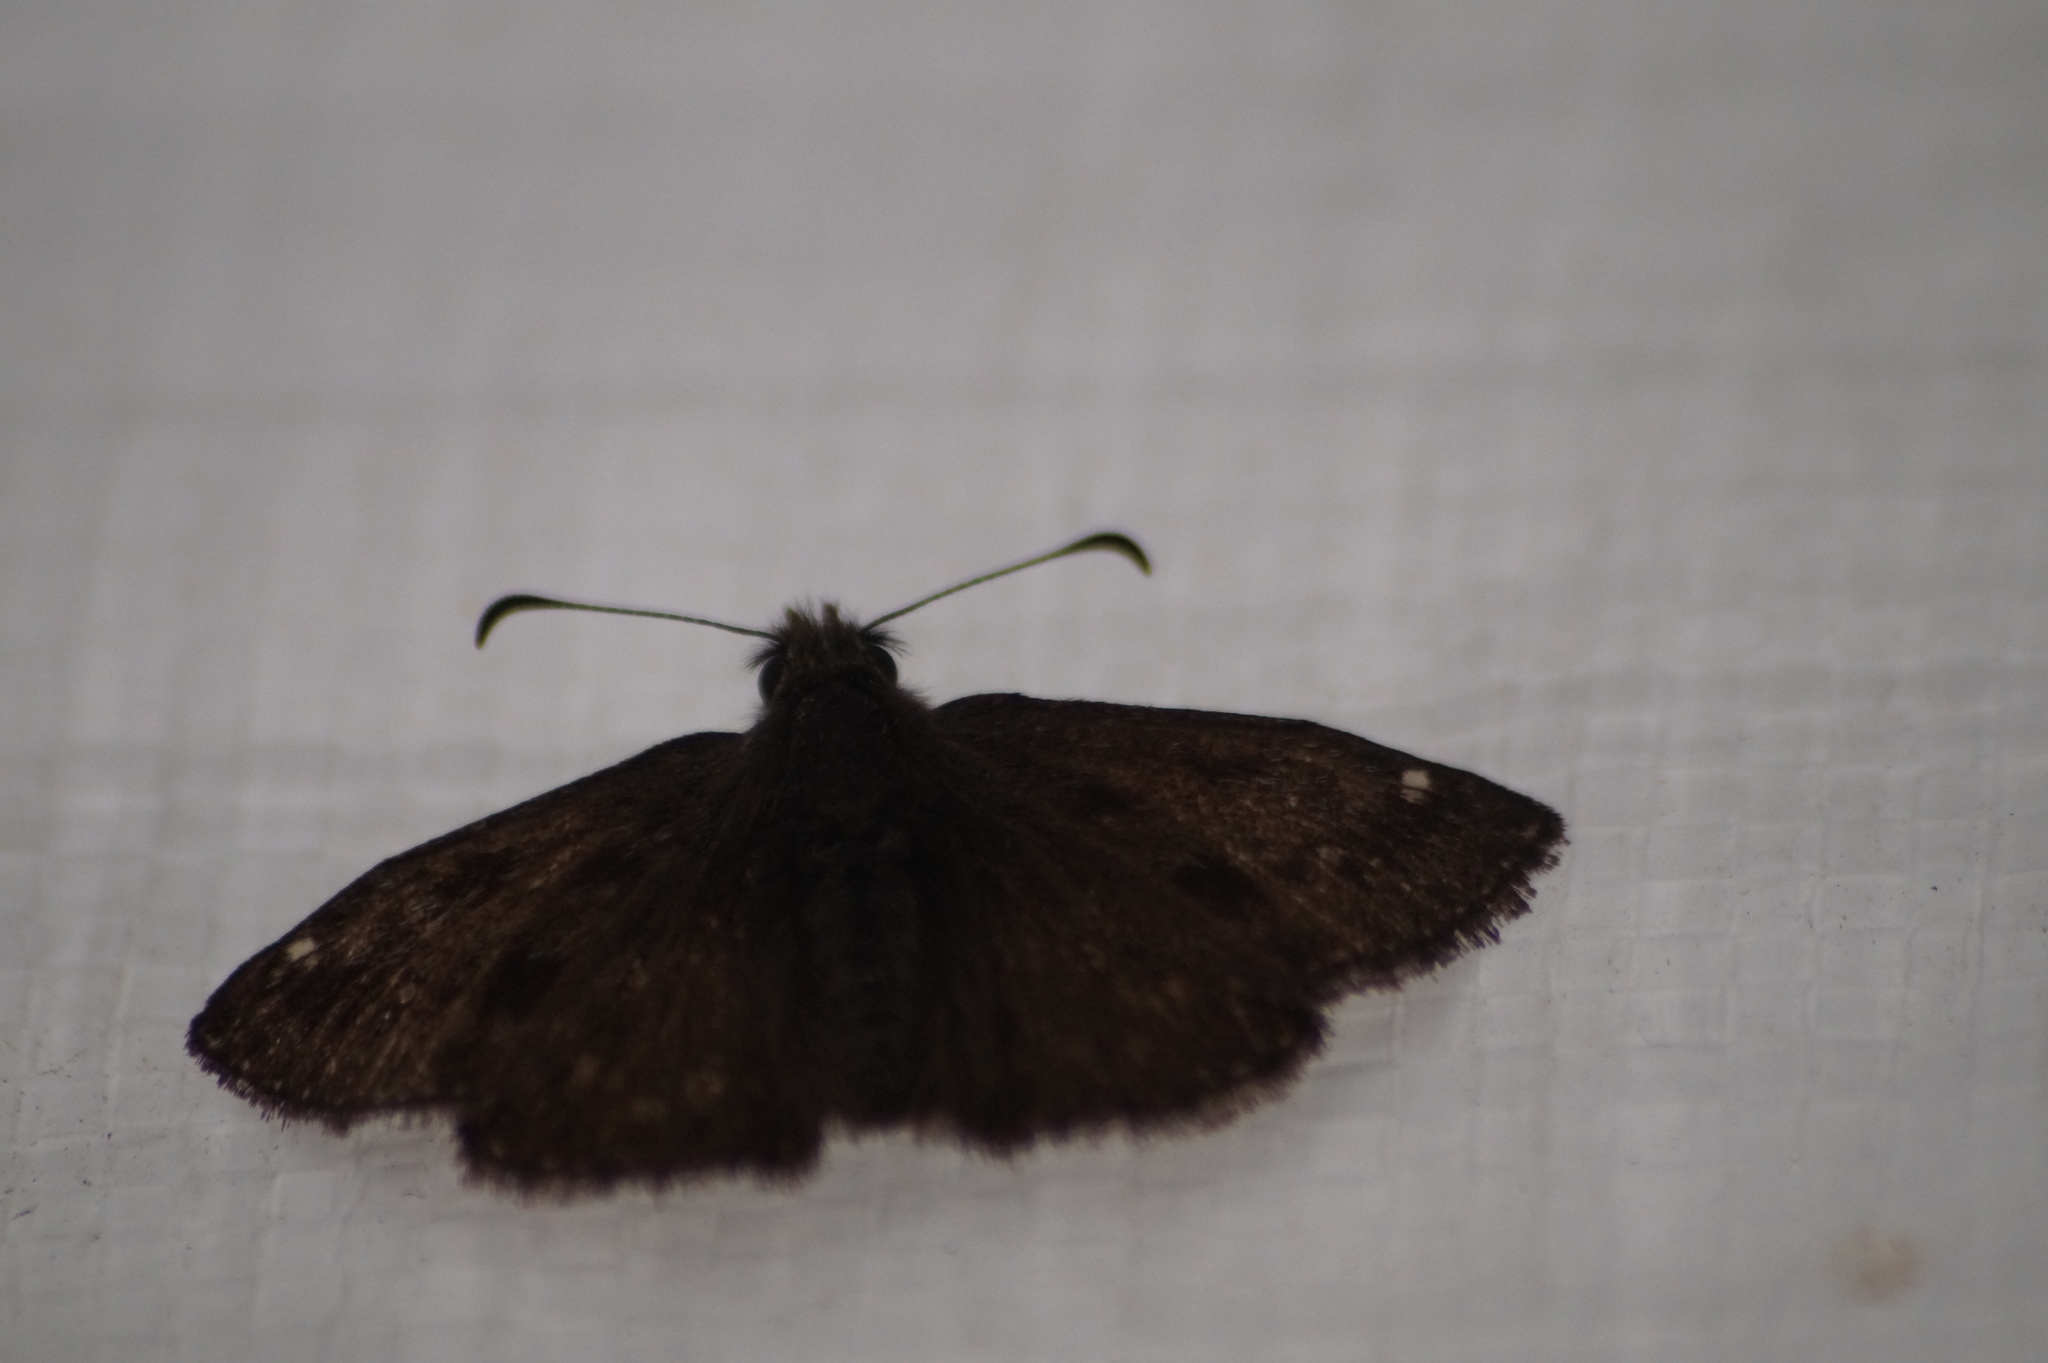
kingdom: Animalia
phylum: Arthropoda
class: Insecta
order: Lepidoptera
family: Hesperiidae
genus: Erynnis
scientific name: Erynnis tages
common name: Dingy skipper
